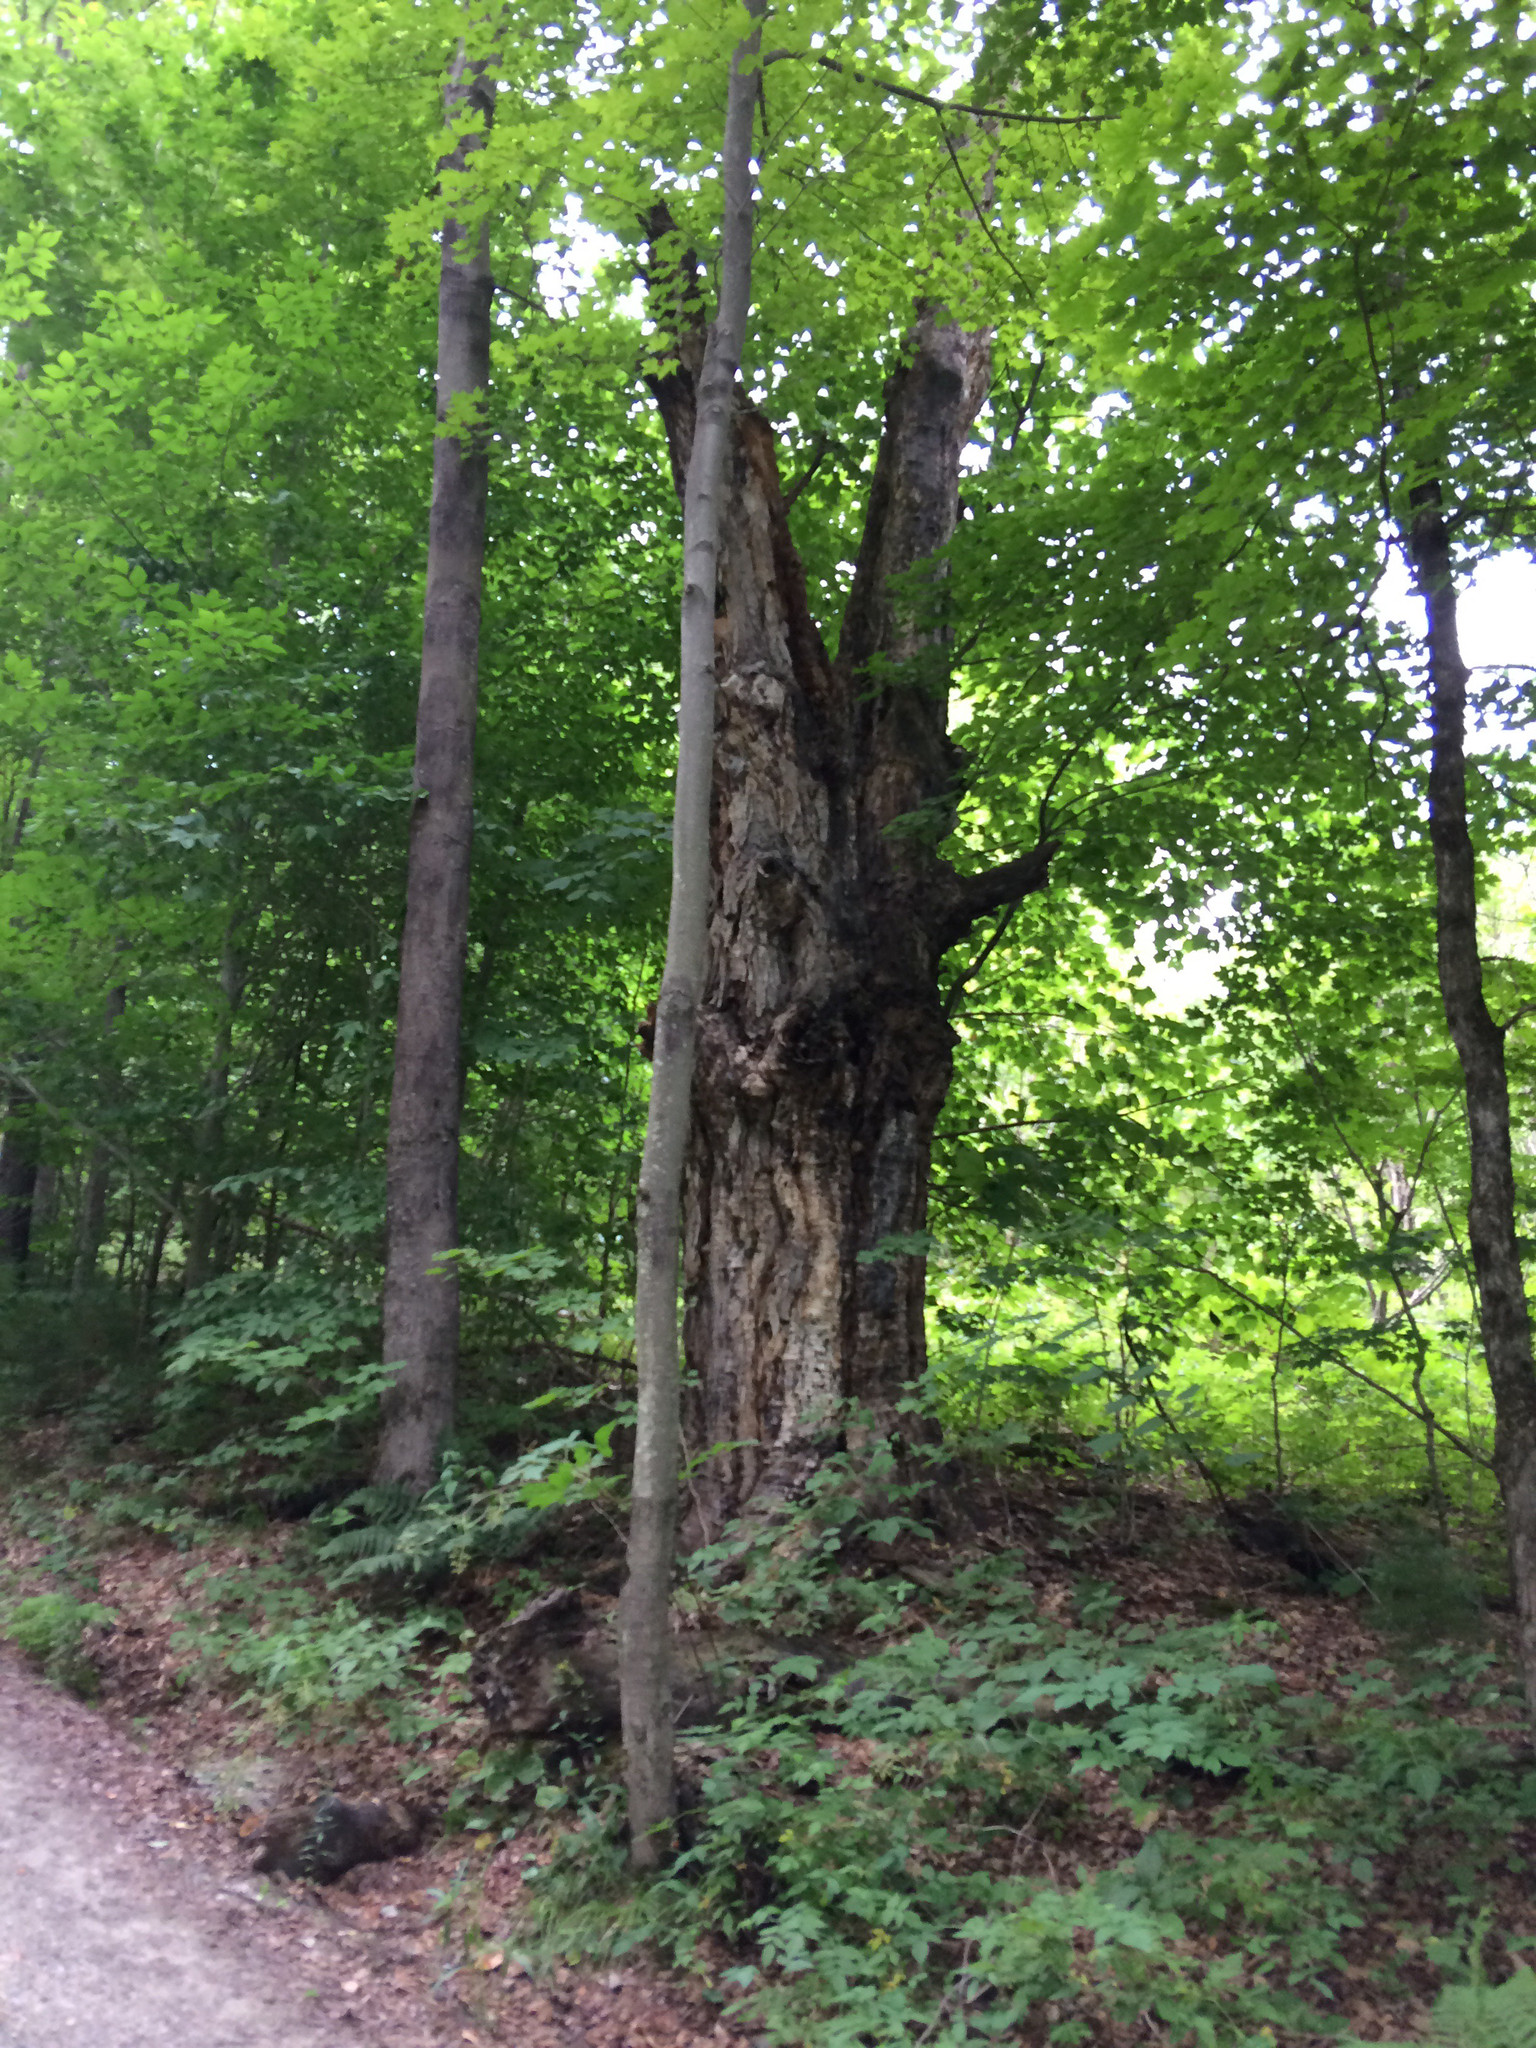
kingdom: Plantae
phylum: Tracheophyta
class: Magnoliopsida
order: Sapindales
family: Sapindaceae
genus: Acer
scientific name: Acer saccharum
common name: Sugar maple
